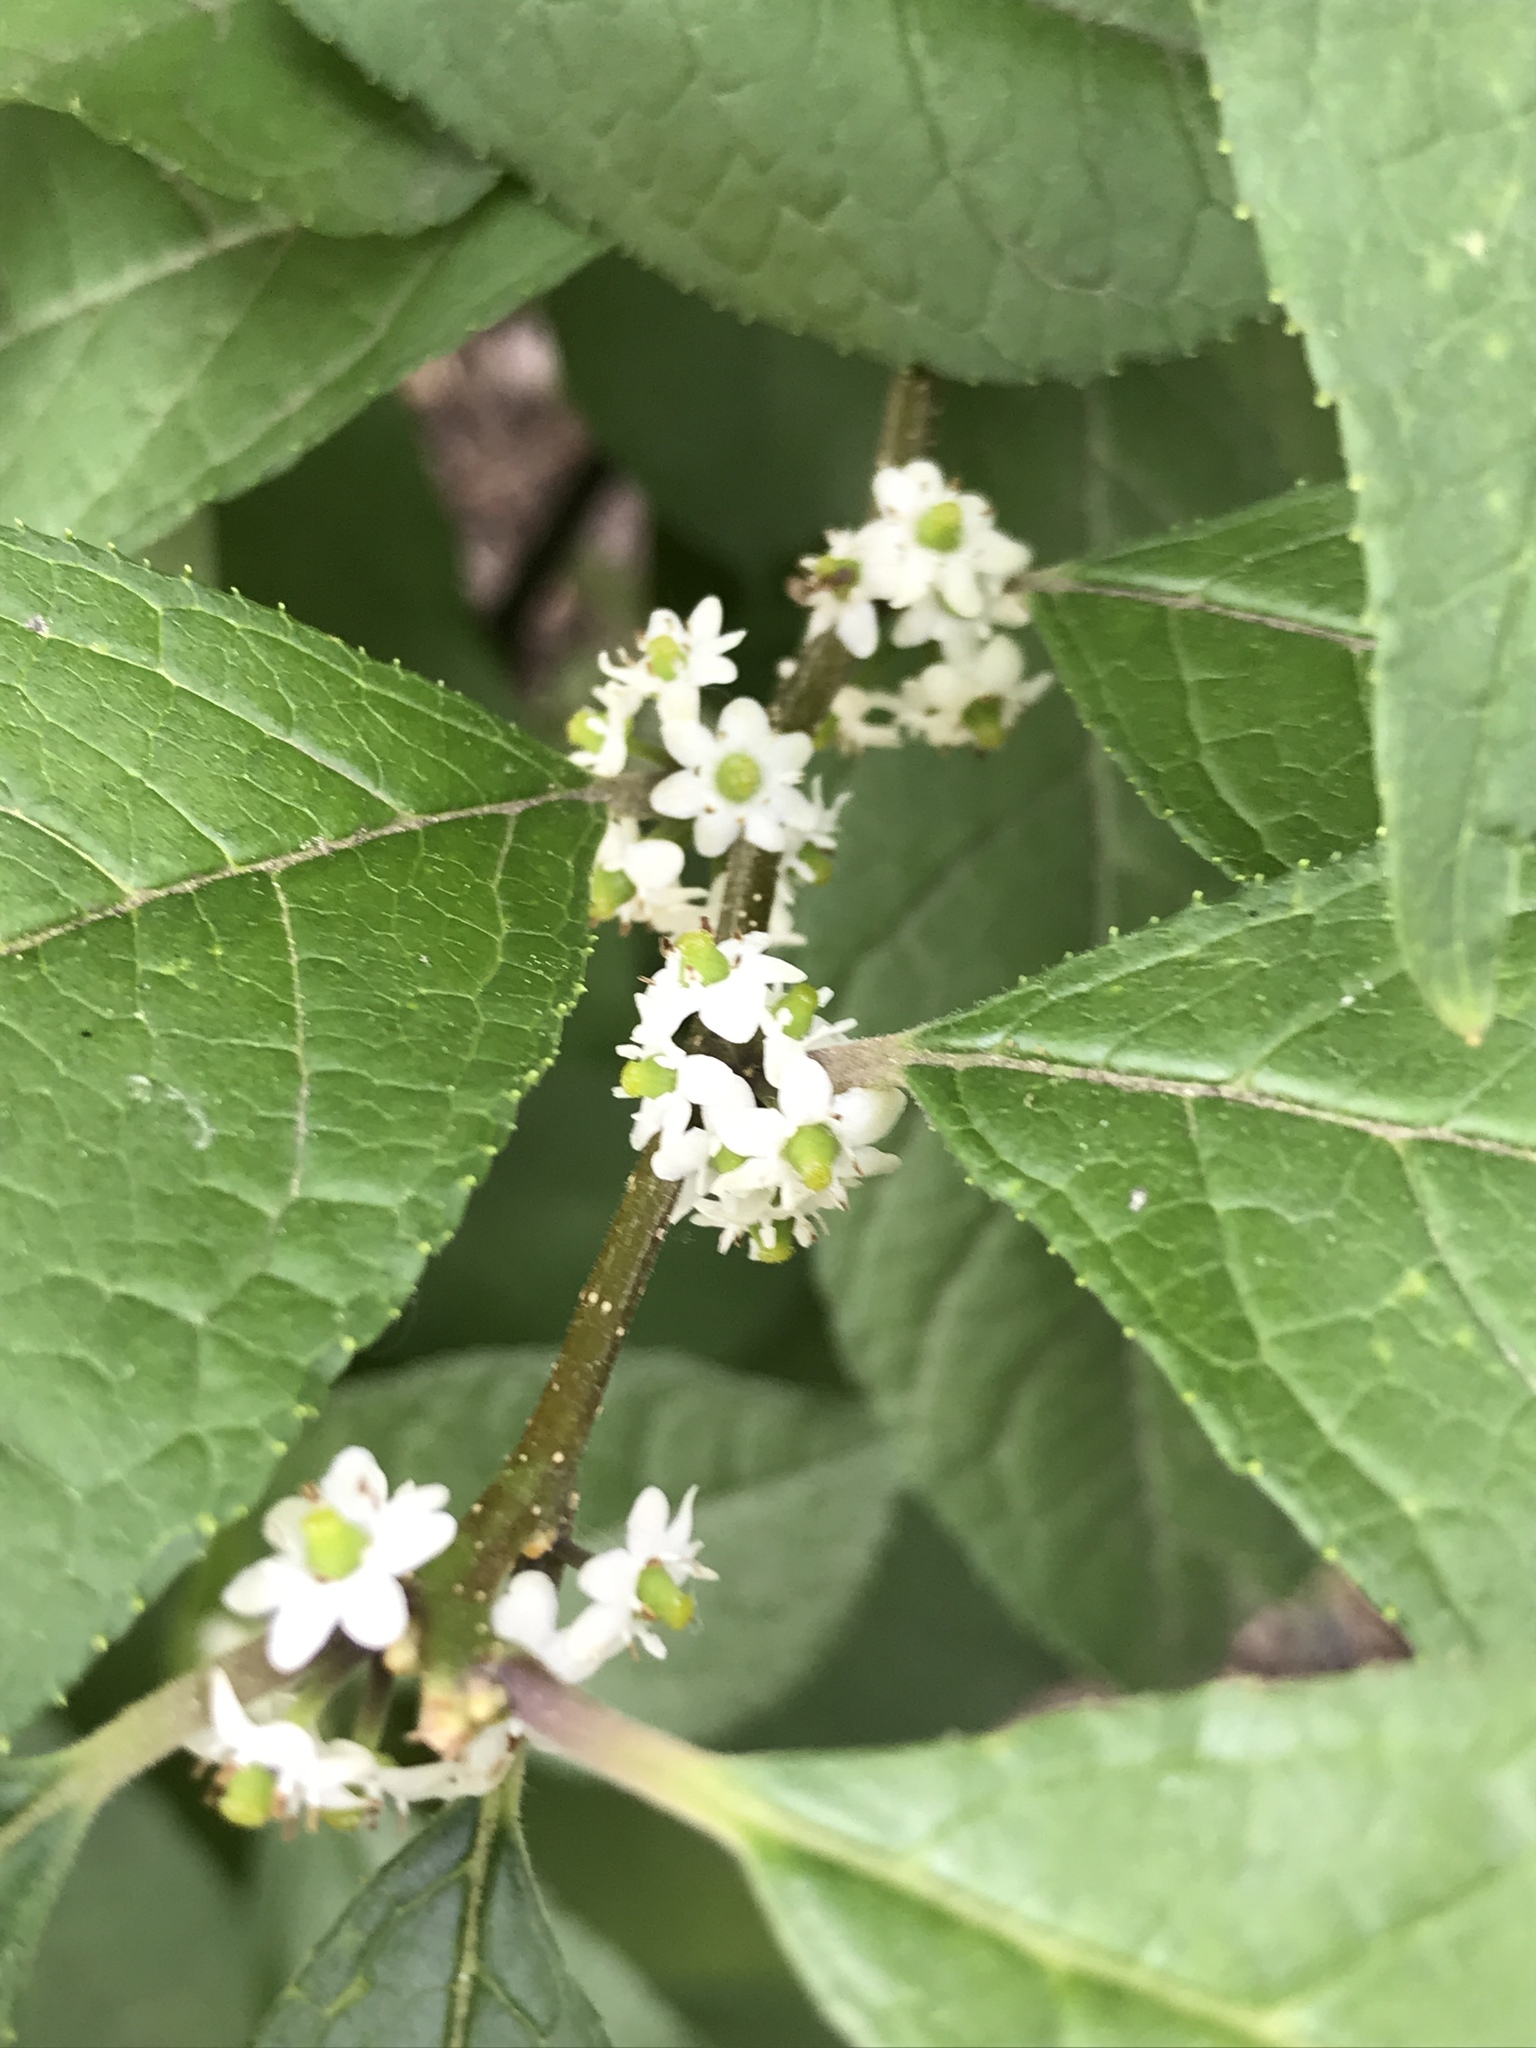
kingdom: Plantae
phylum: Tracheophyta
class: Magnoliopsida
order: Aquifoliales
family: Aquifoliaceae
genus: Ilex
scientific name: Ilex verticillata
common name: Virginia winterberry
